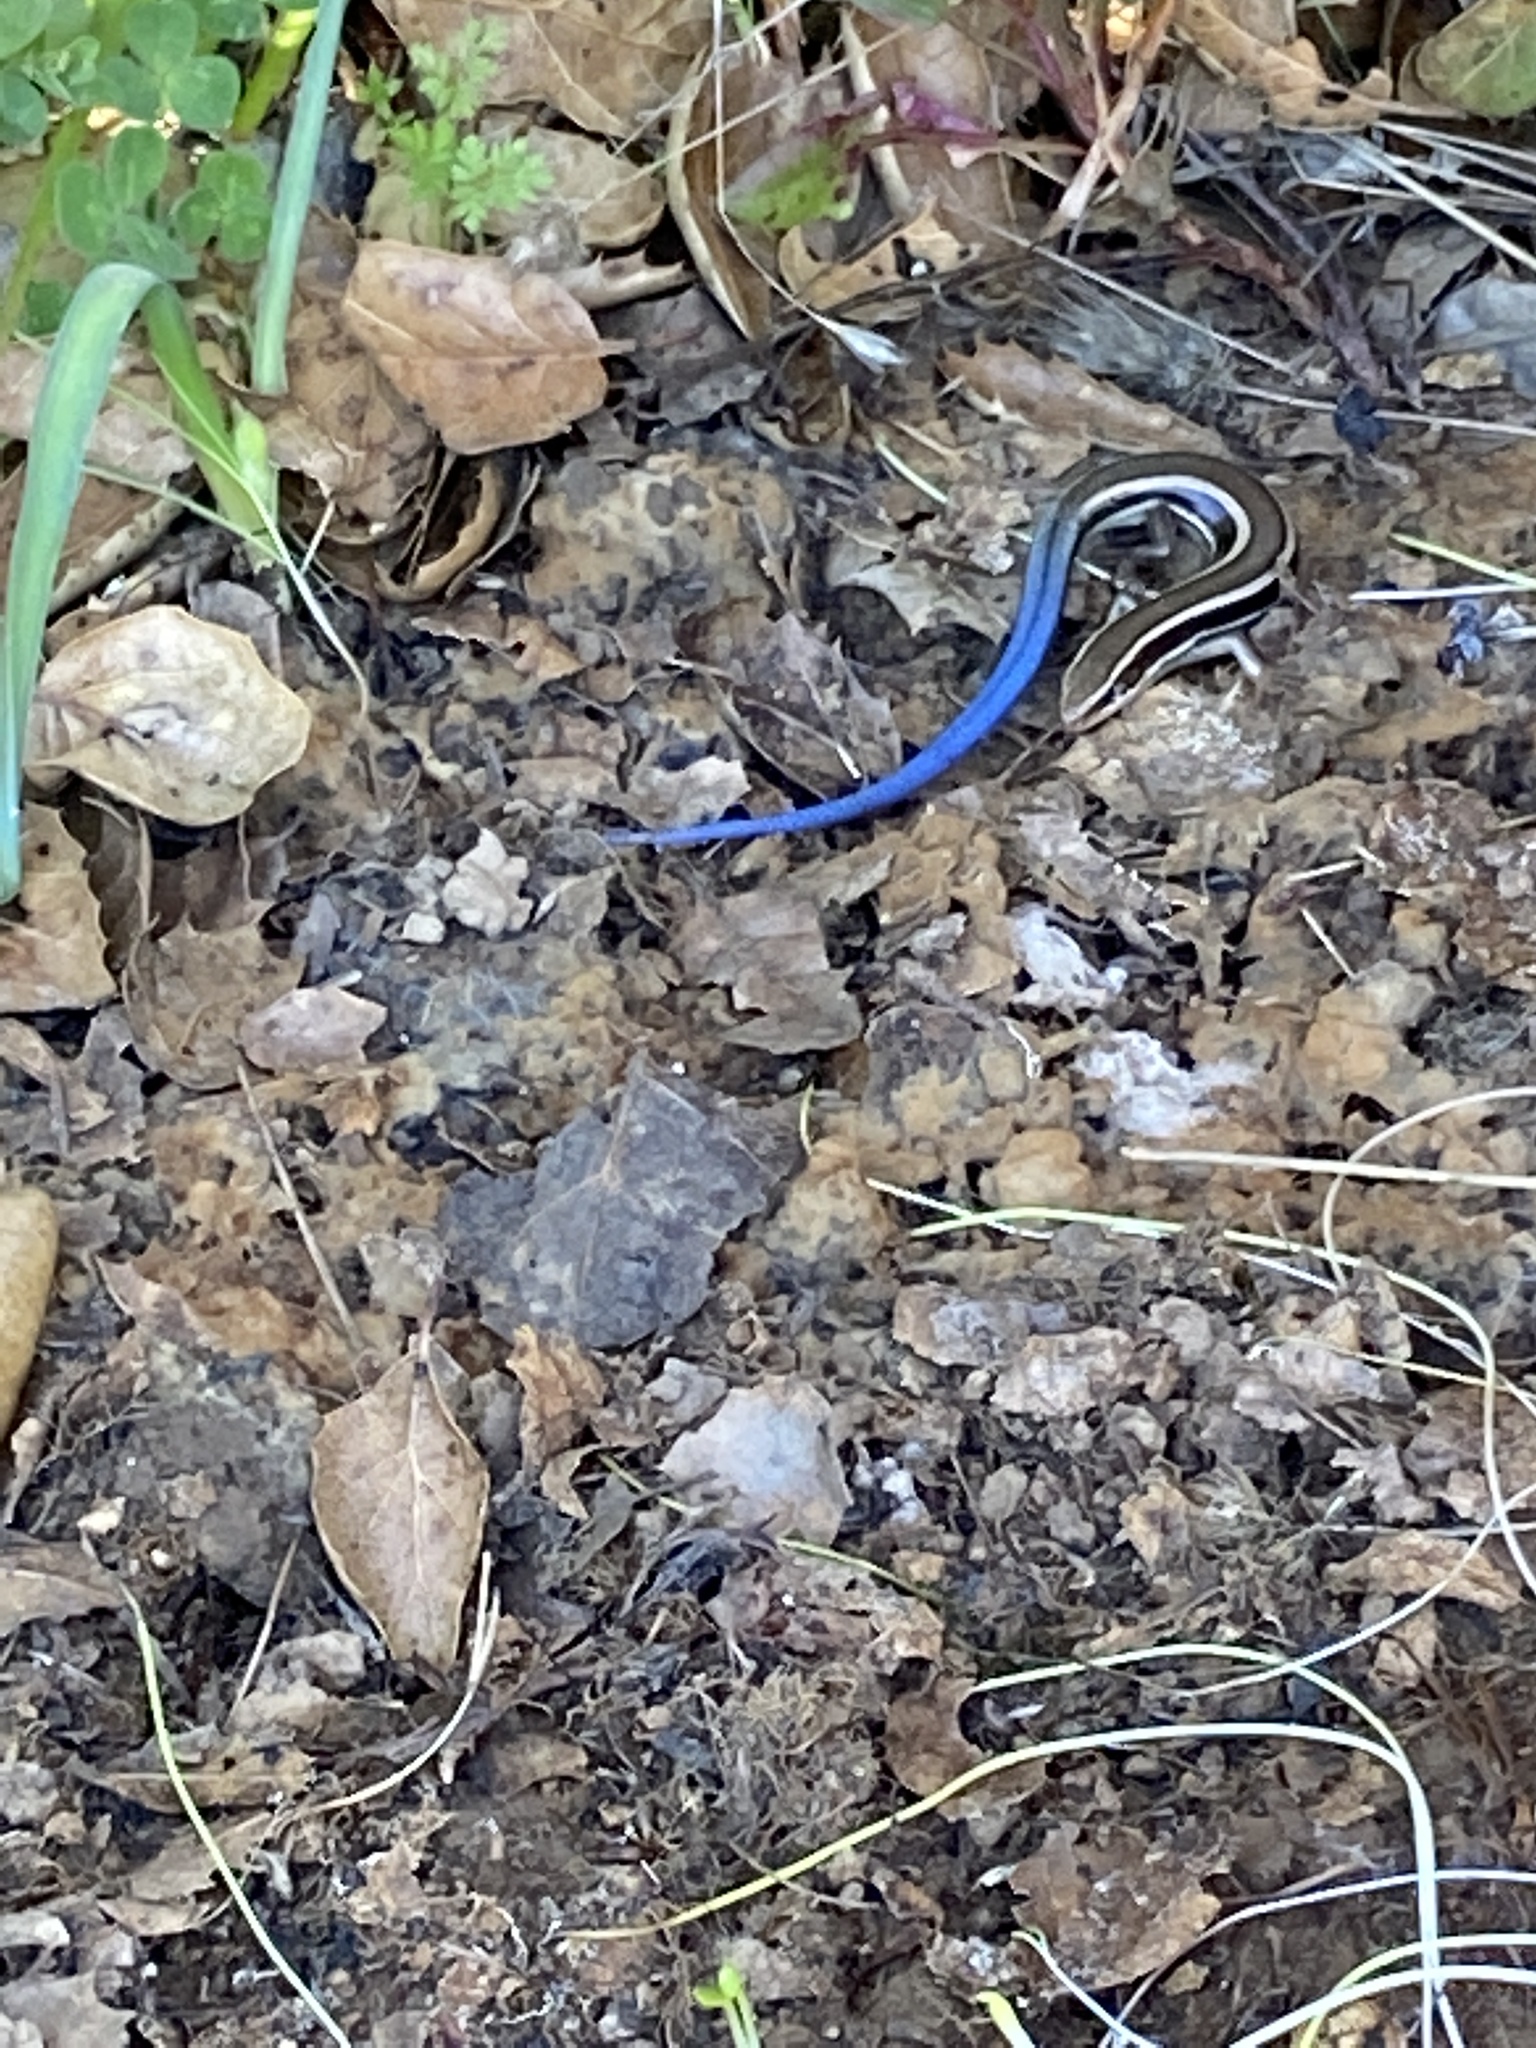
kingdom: Animalia
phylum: Chordata
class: Squamata
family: Scincidae
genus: Plestiodon
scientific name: Plestiodon skiltonianus
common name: Coronado island skink [interparietalis]
